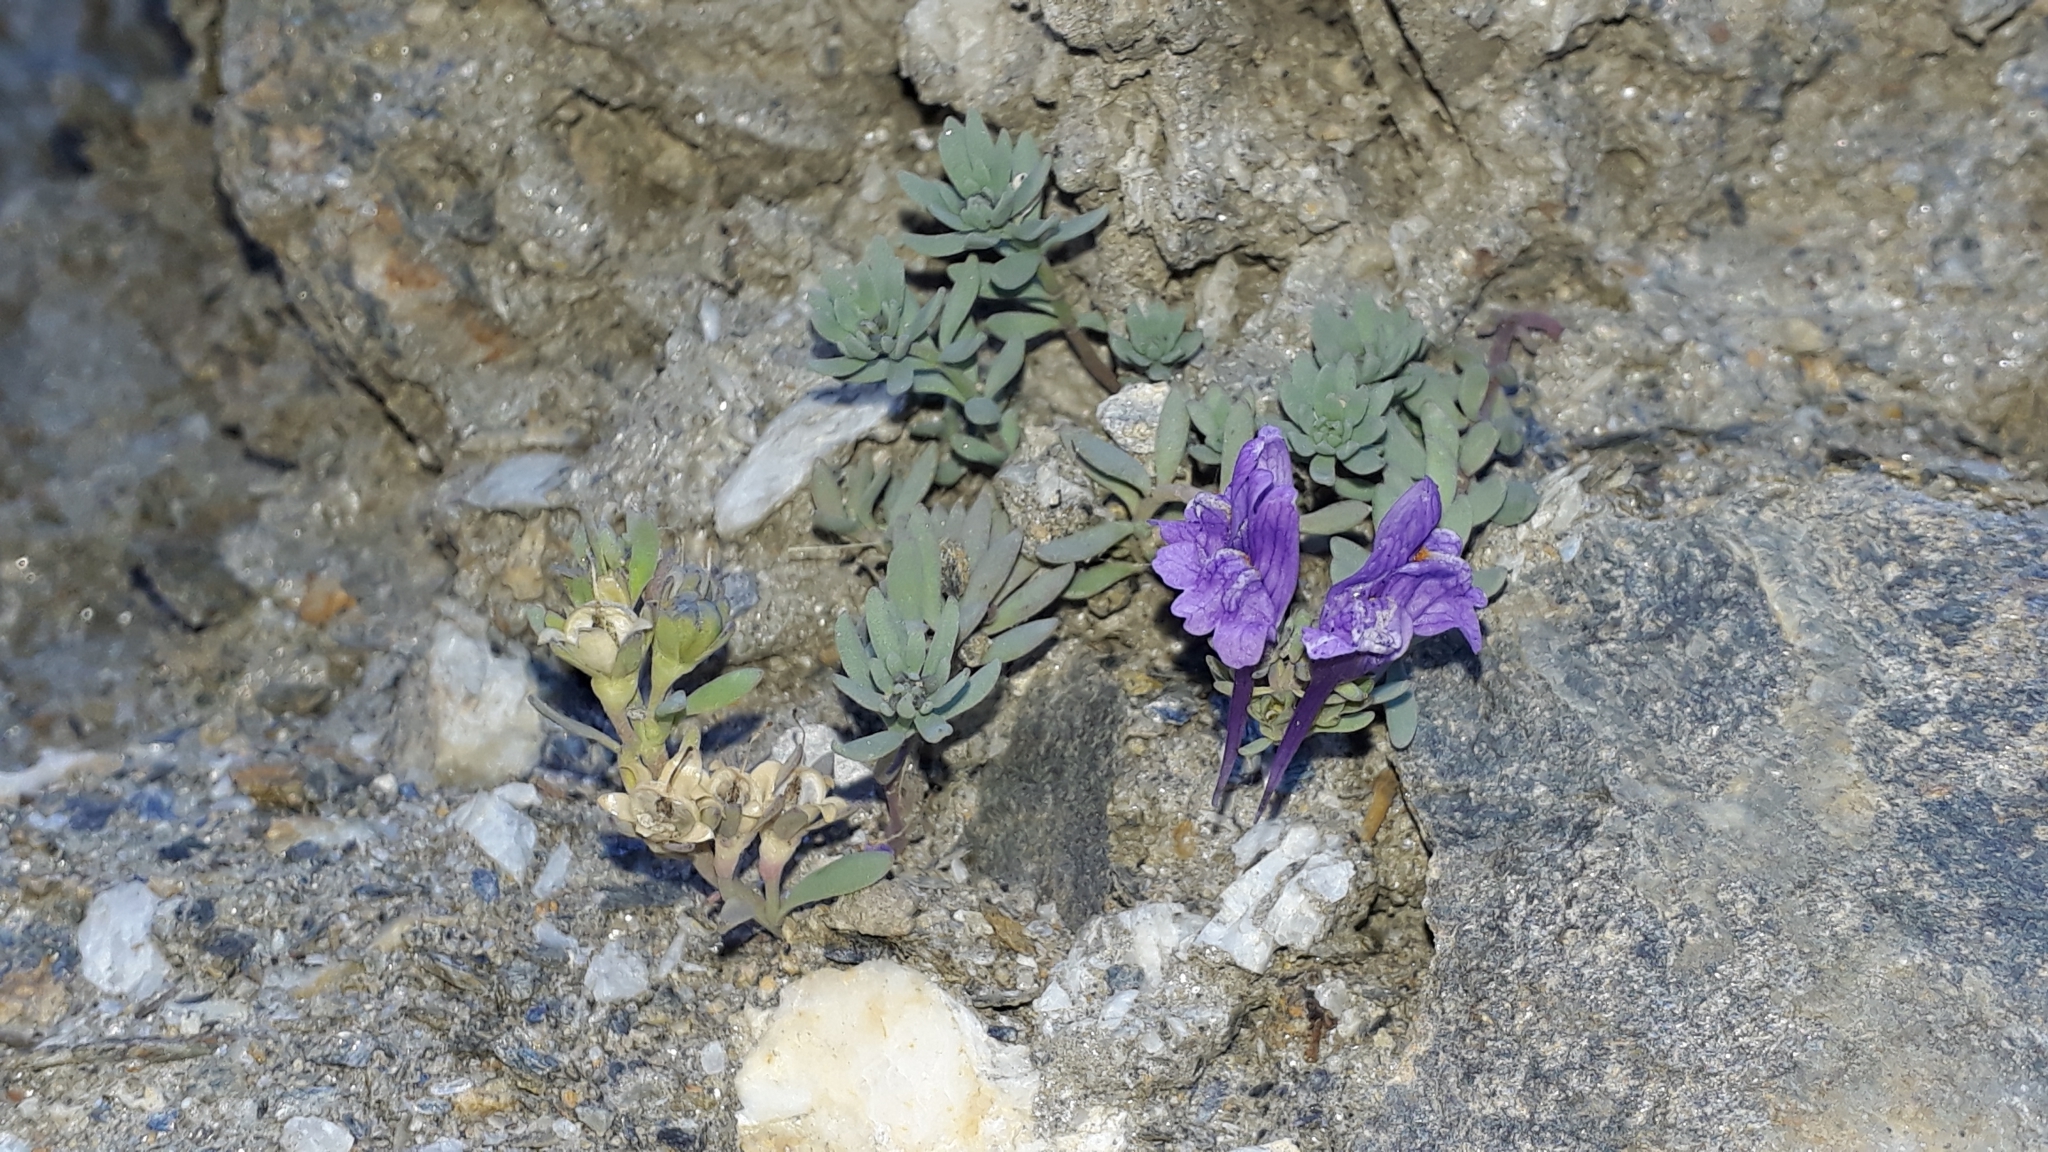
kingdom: Plantae
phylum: Tracheophyta
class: Magnoliopsida
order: Lamiales
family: Plantaginaceae
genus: Linaria
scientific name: Linaria alpina
